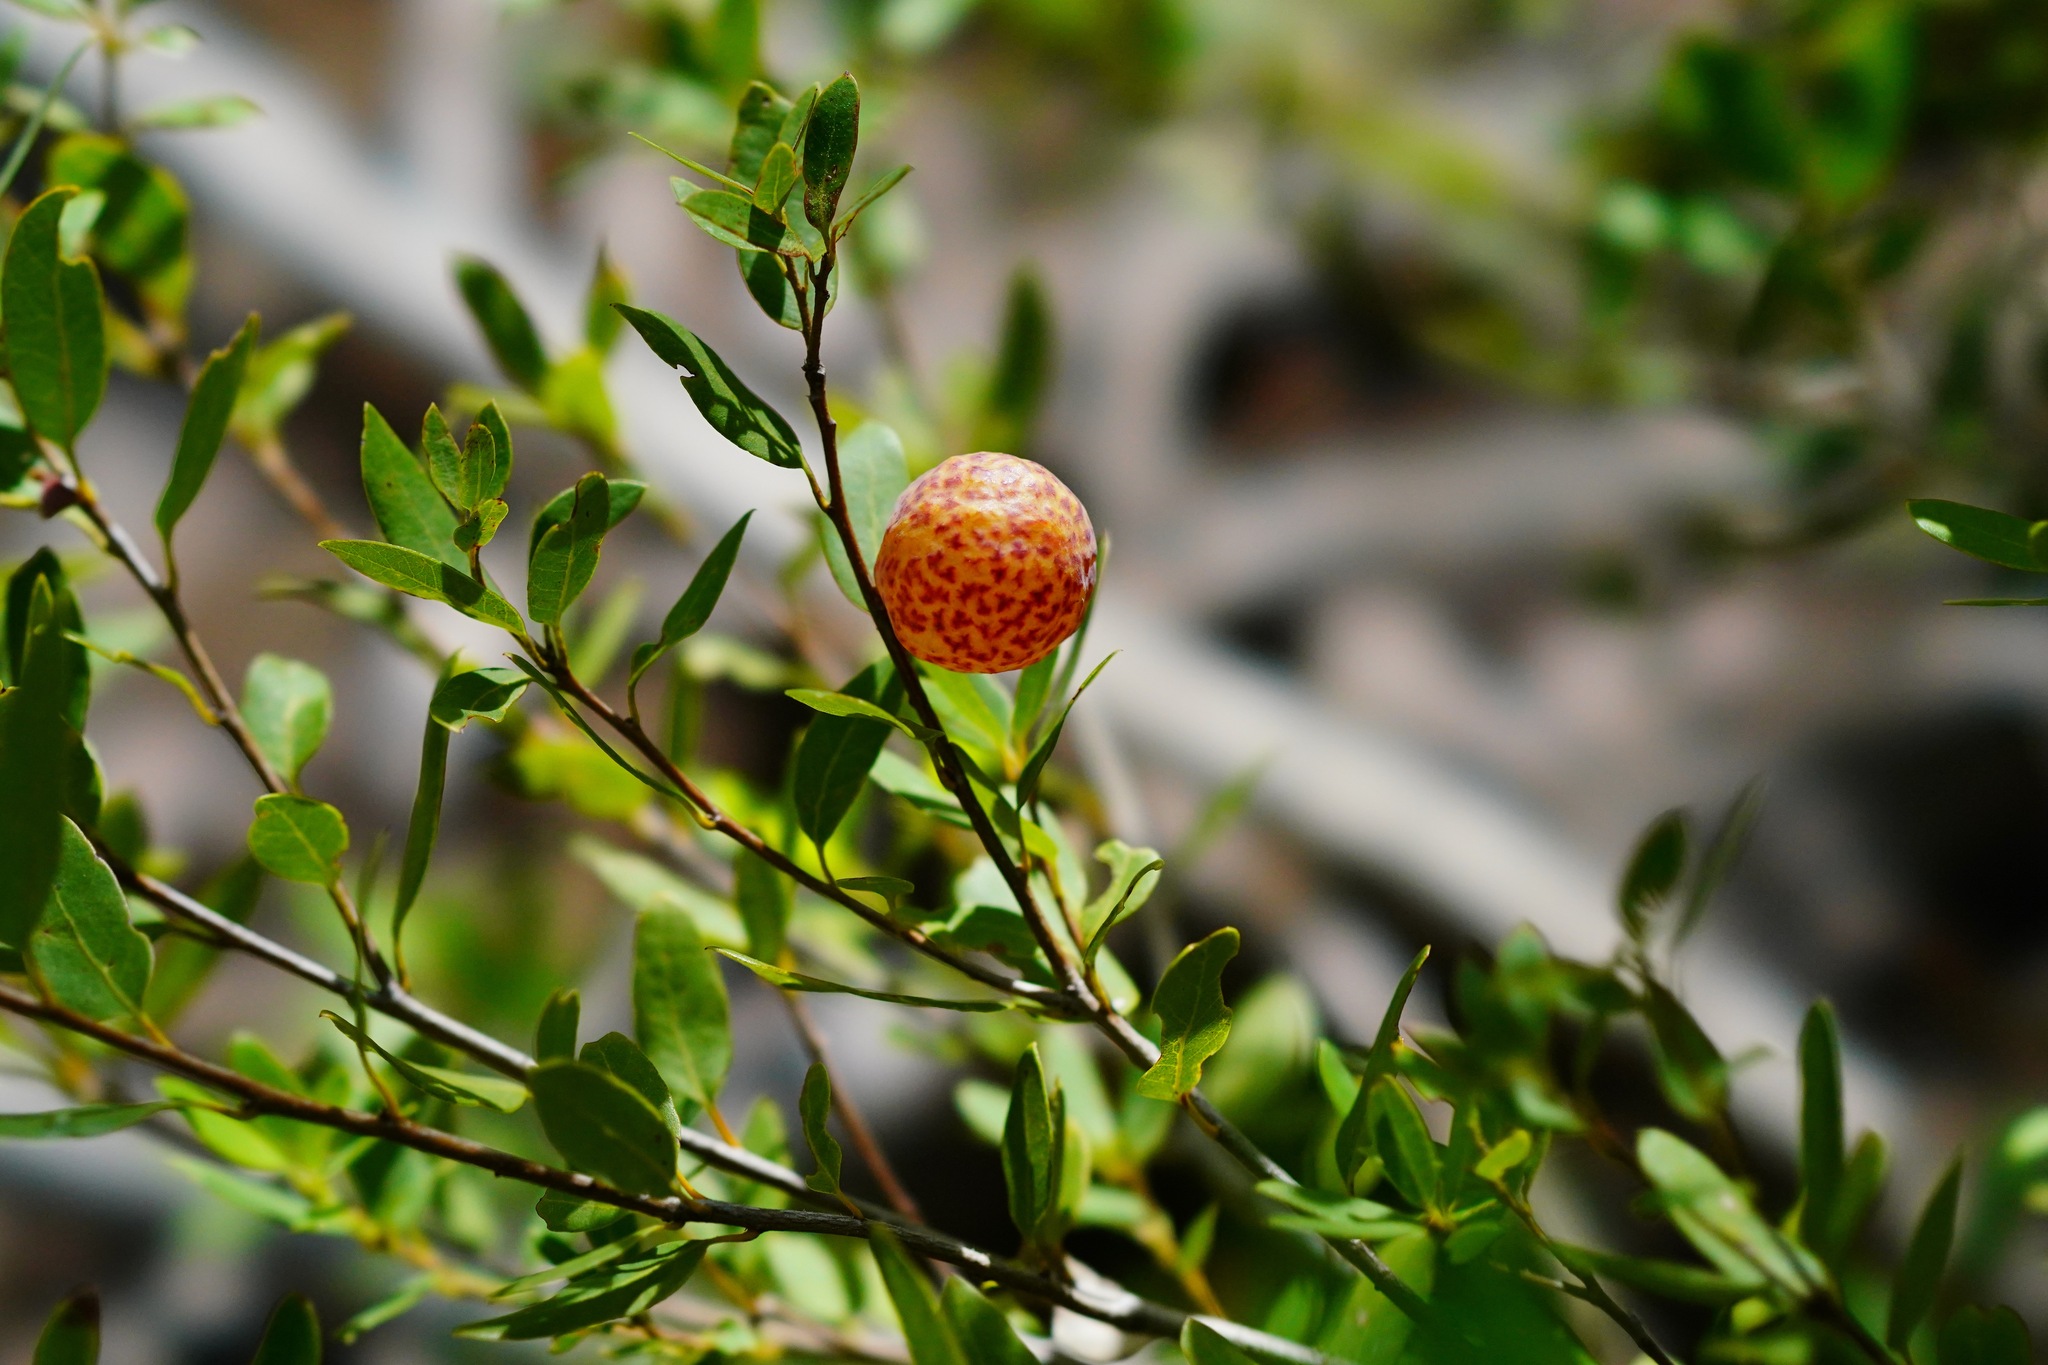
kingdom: Animalia
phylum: Arthropoda
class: Insecta
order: Hymenoptera
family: Cynipidae
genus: Andricus
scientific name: Andricus
